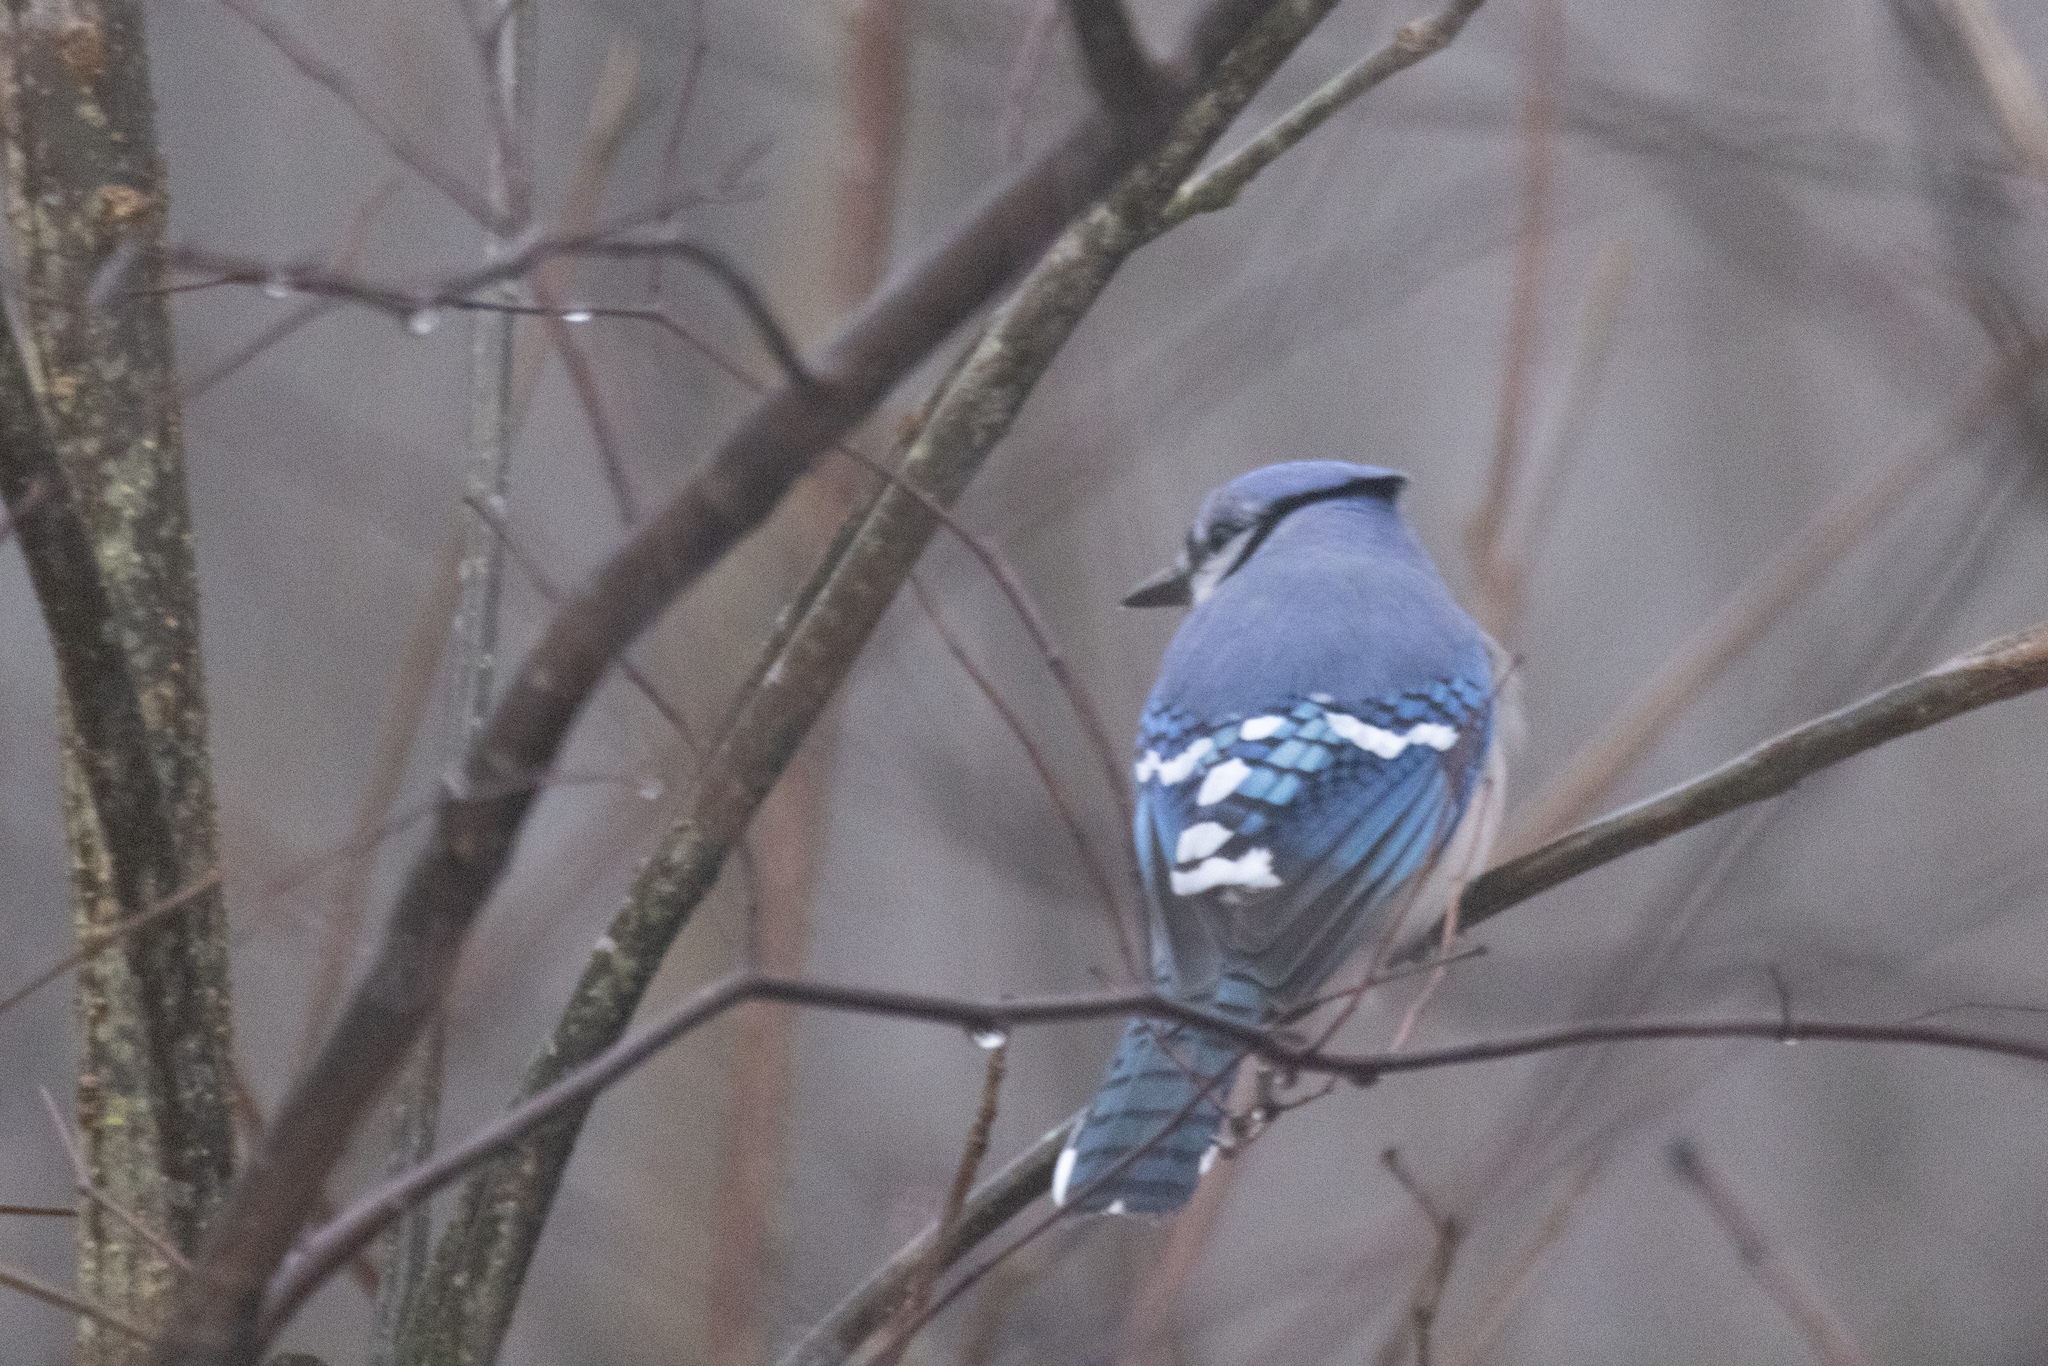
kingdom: Animalia
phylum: Chordata
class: Aves
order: Passeriformes
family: Corvidae
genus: Cyanocitta
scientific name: Cyanocitta cristata
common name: Blue jay
